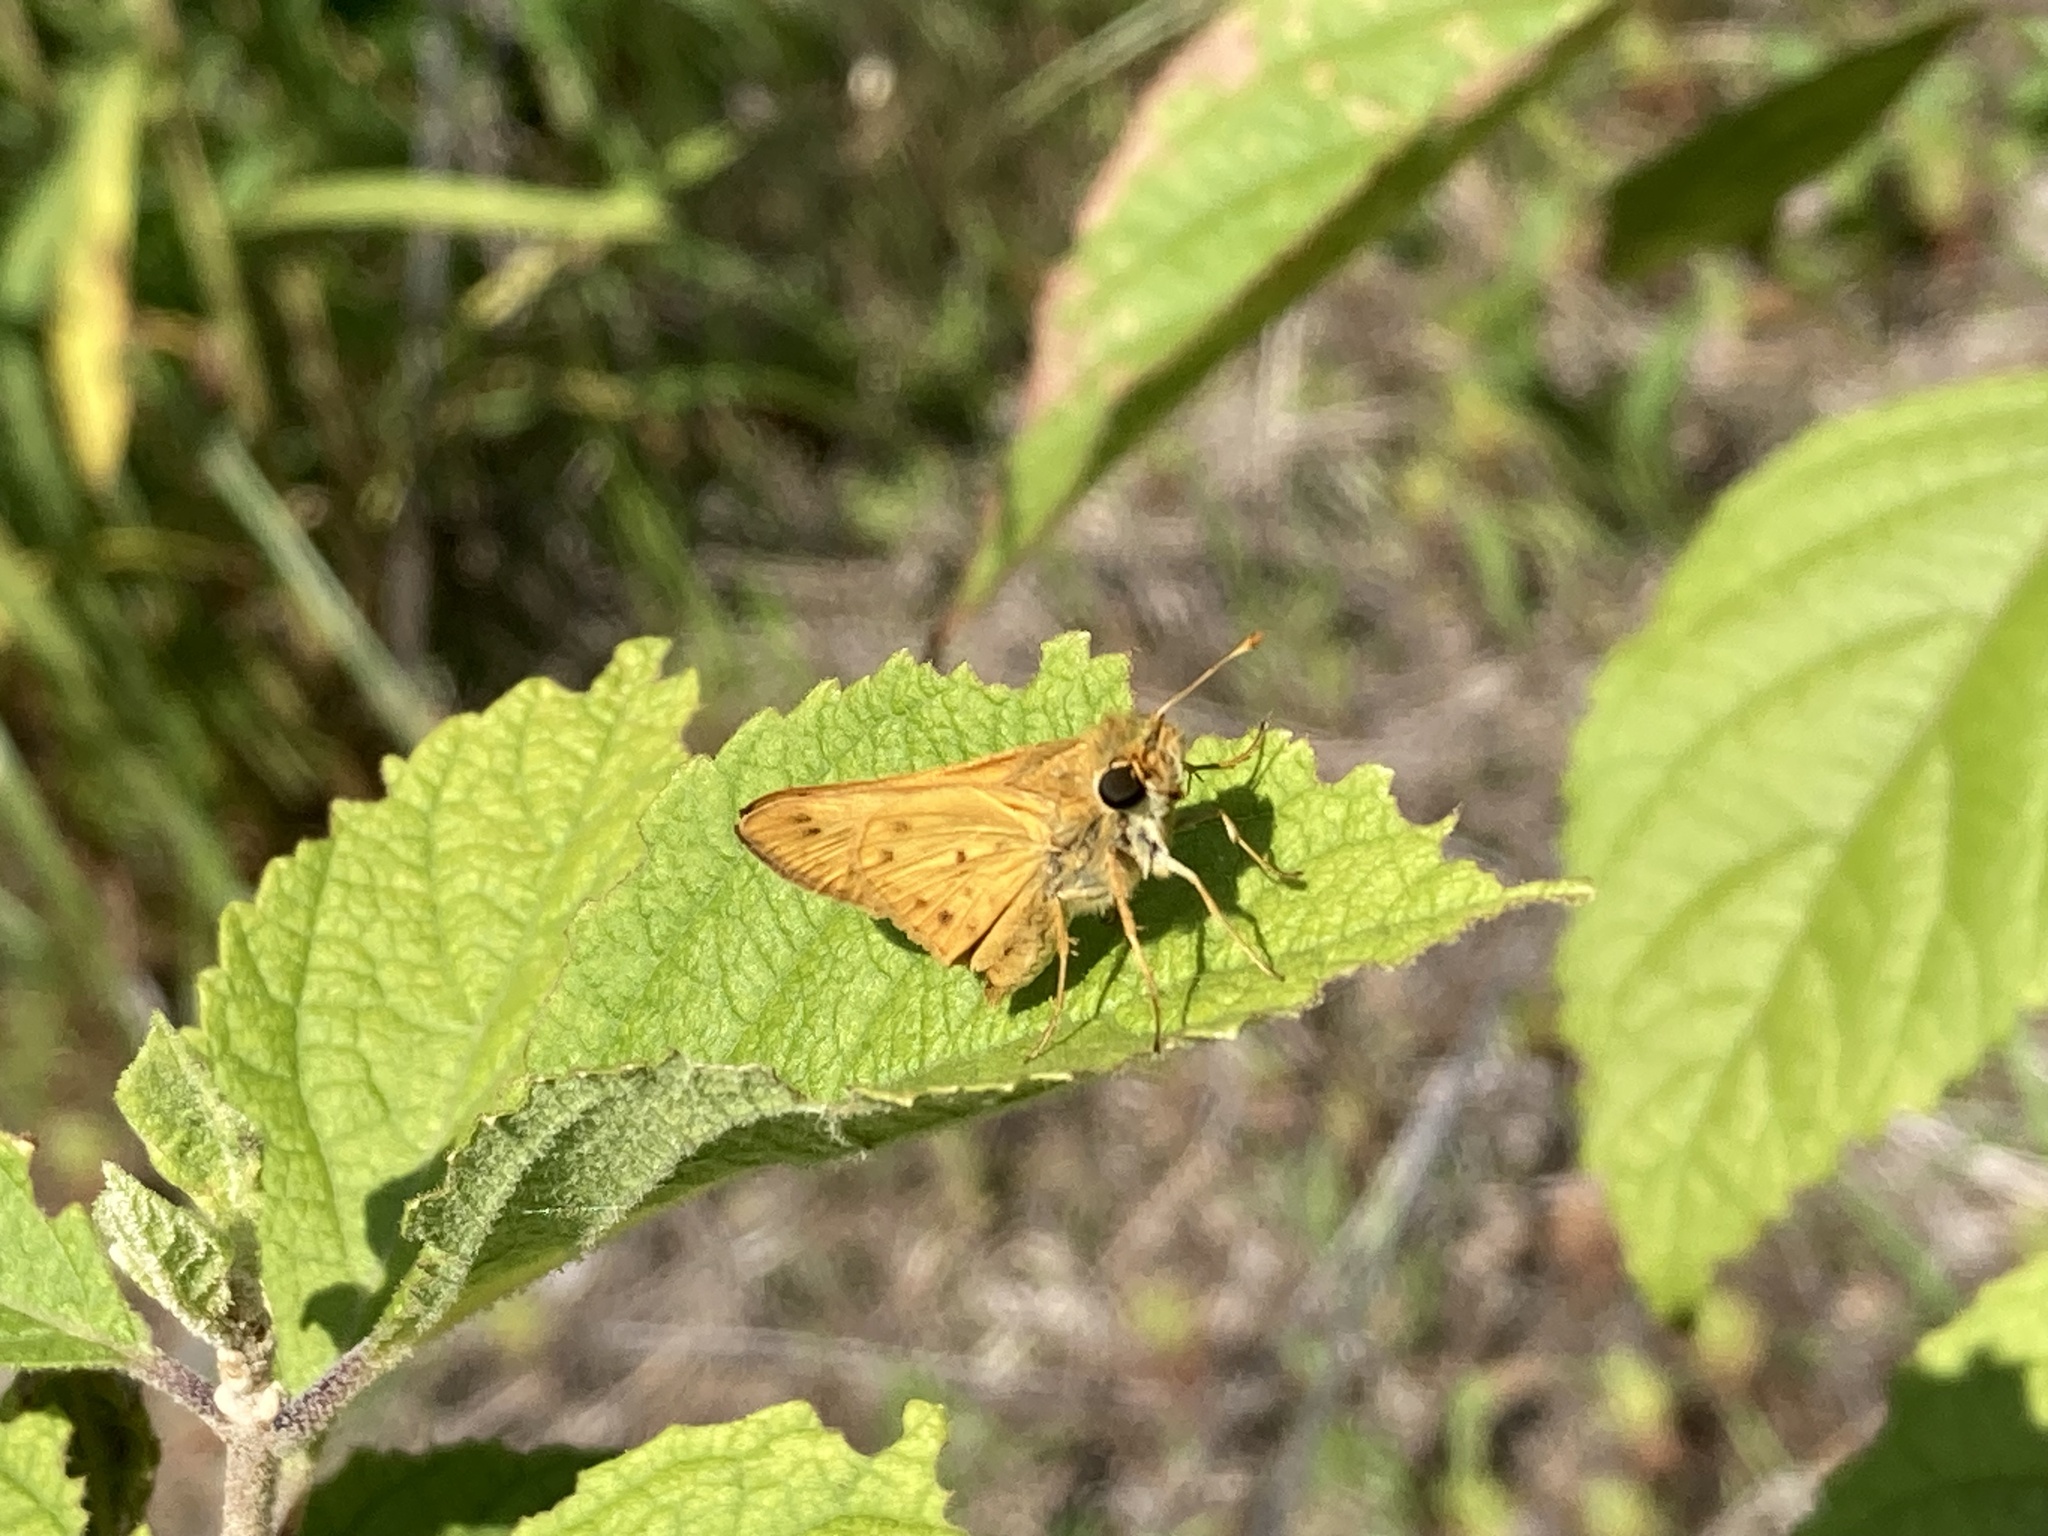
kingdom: Animalia
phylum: Arthropoda
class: Insecta
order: Lepidoptera
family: Hesperiidae
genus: Hylephila
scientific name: Hylephila phyleus
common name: Fiery skipper
